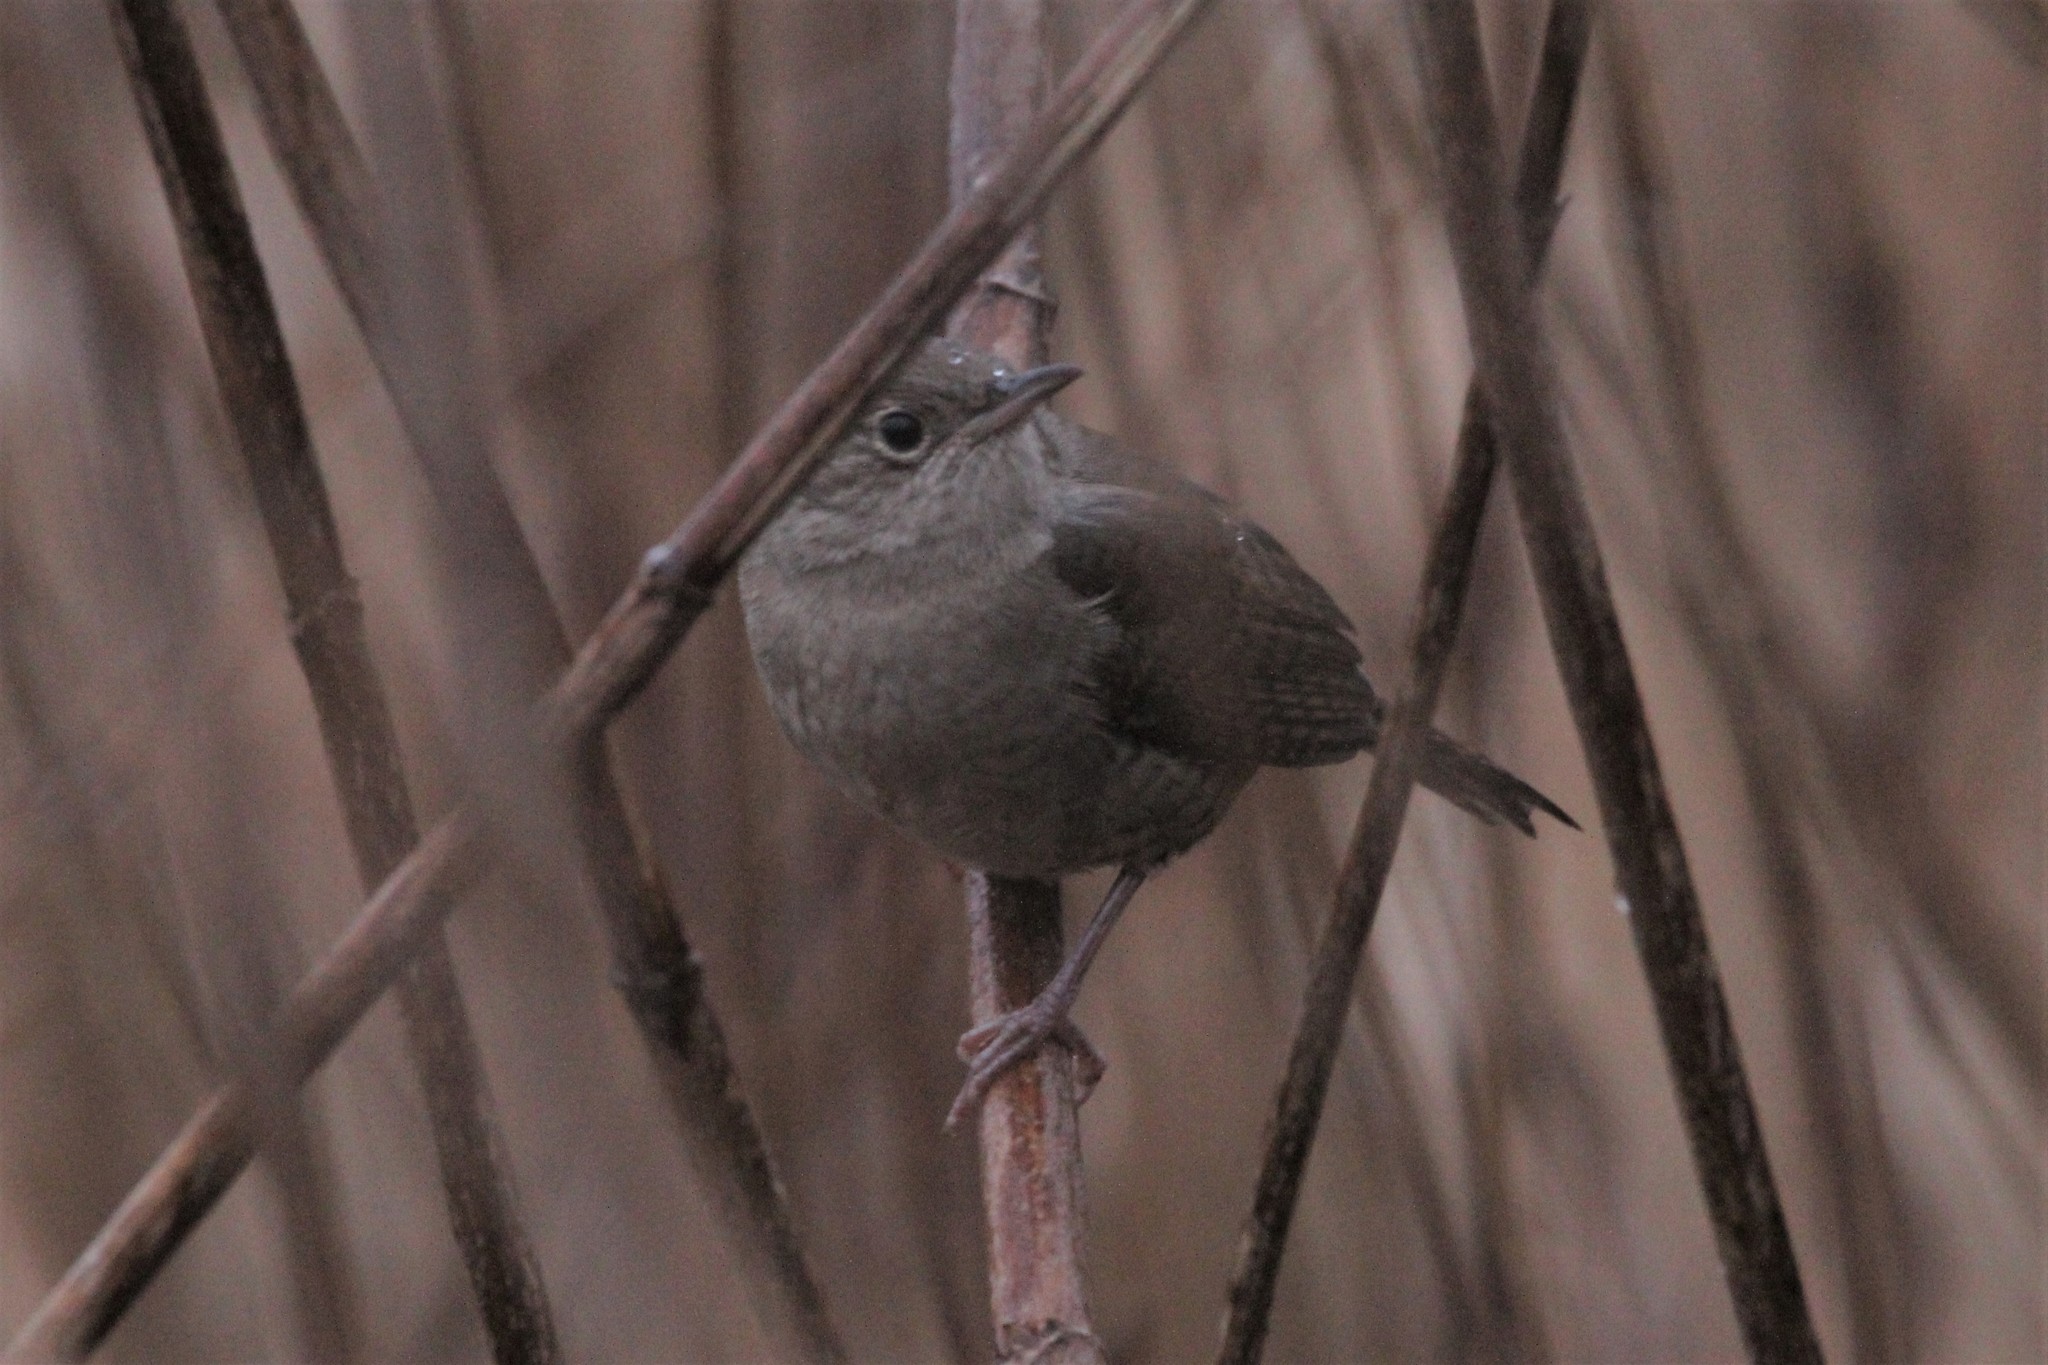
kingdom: Animalia
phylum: Chordata
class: Aves
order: Passeriformes
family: Troglodytidae
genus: Troglodytes
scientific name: Troglodytes aedon
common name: House wren
